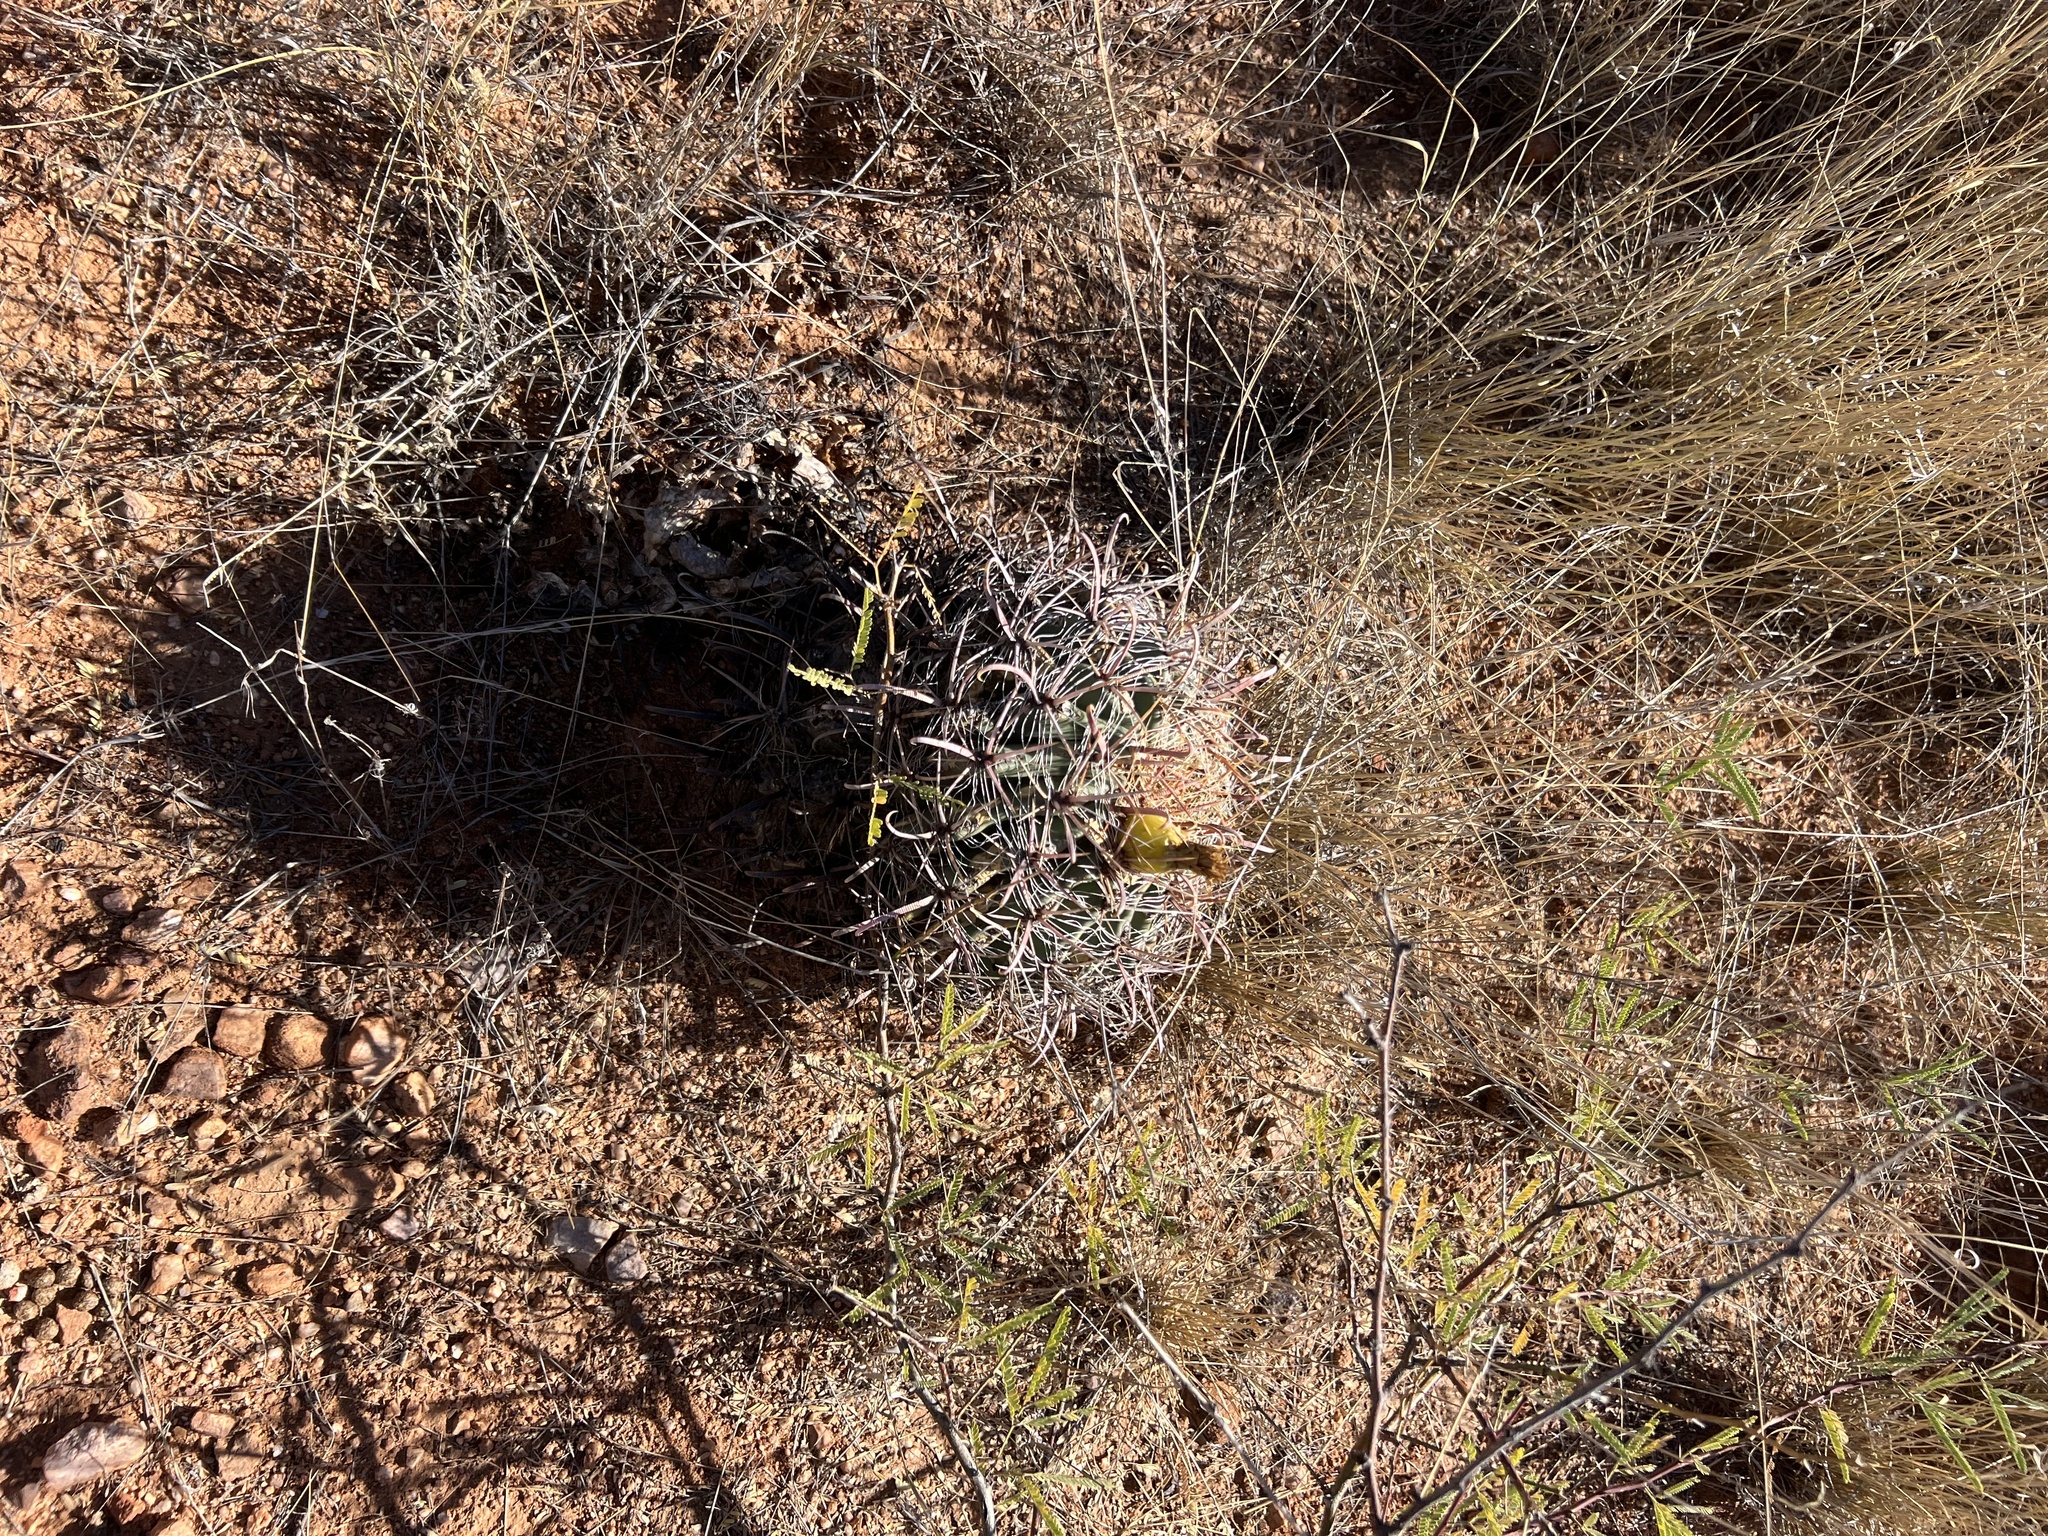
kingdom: Plantae
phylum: Tracheophyta
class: Magnoliopsida
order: Caryophyllales
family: Cactaceae
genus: Ferocactus
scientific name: Ferocactus wislizeni
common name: Candy barrel cactus
